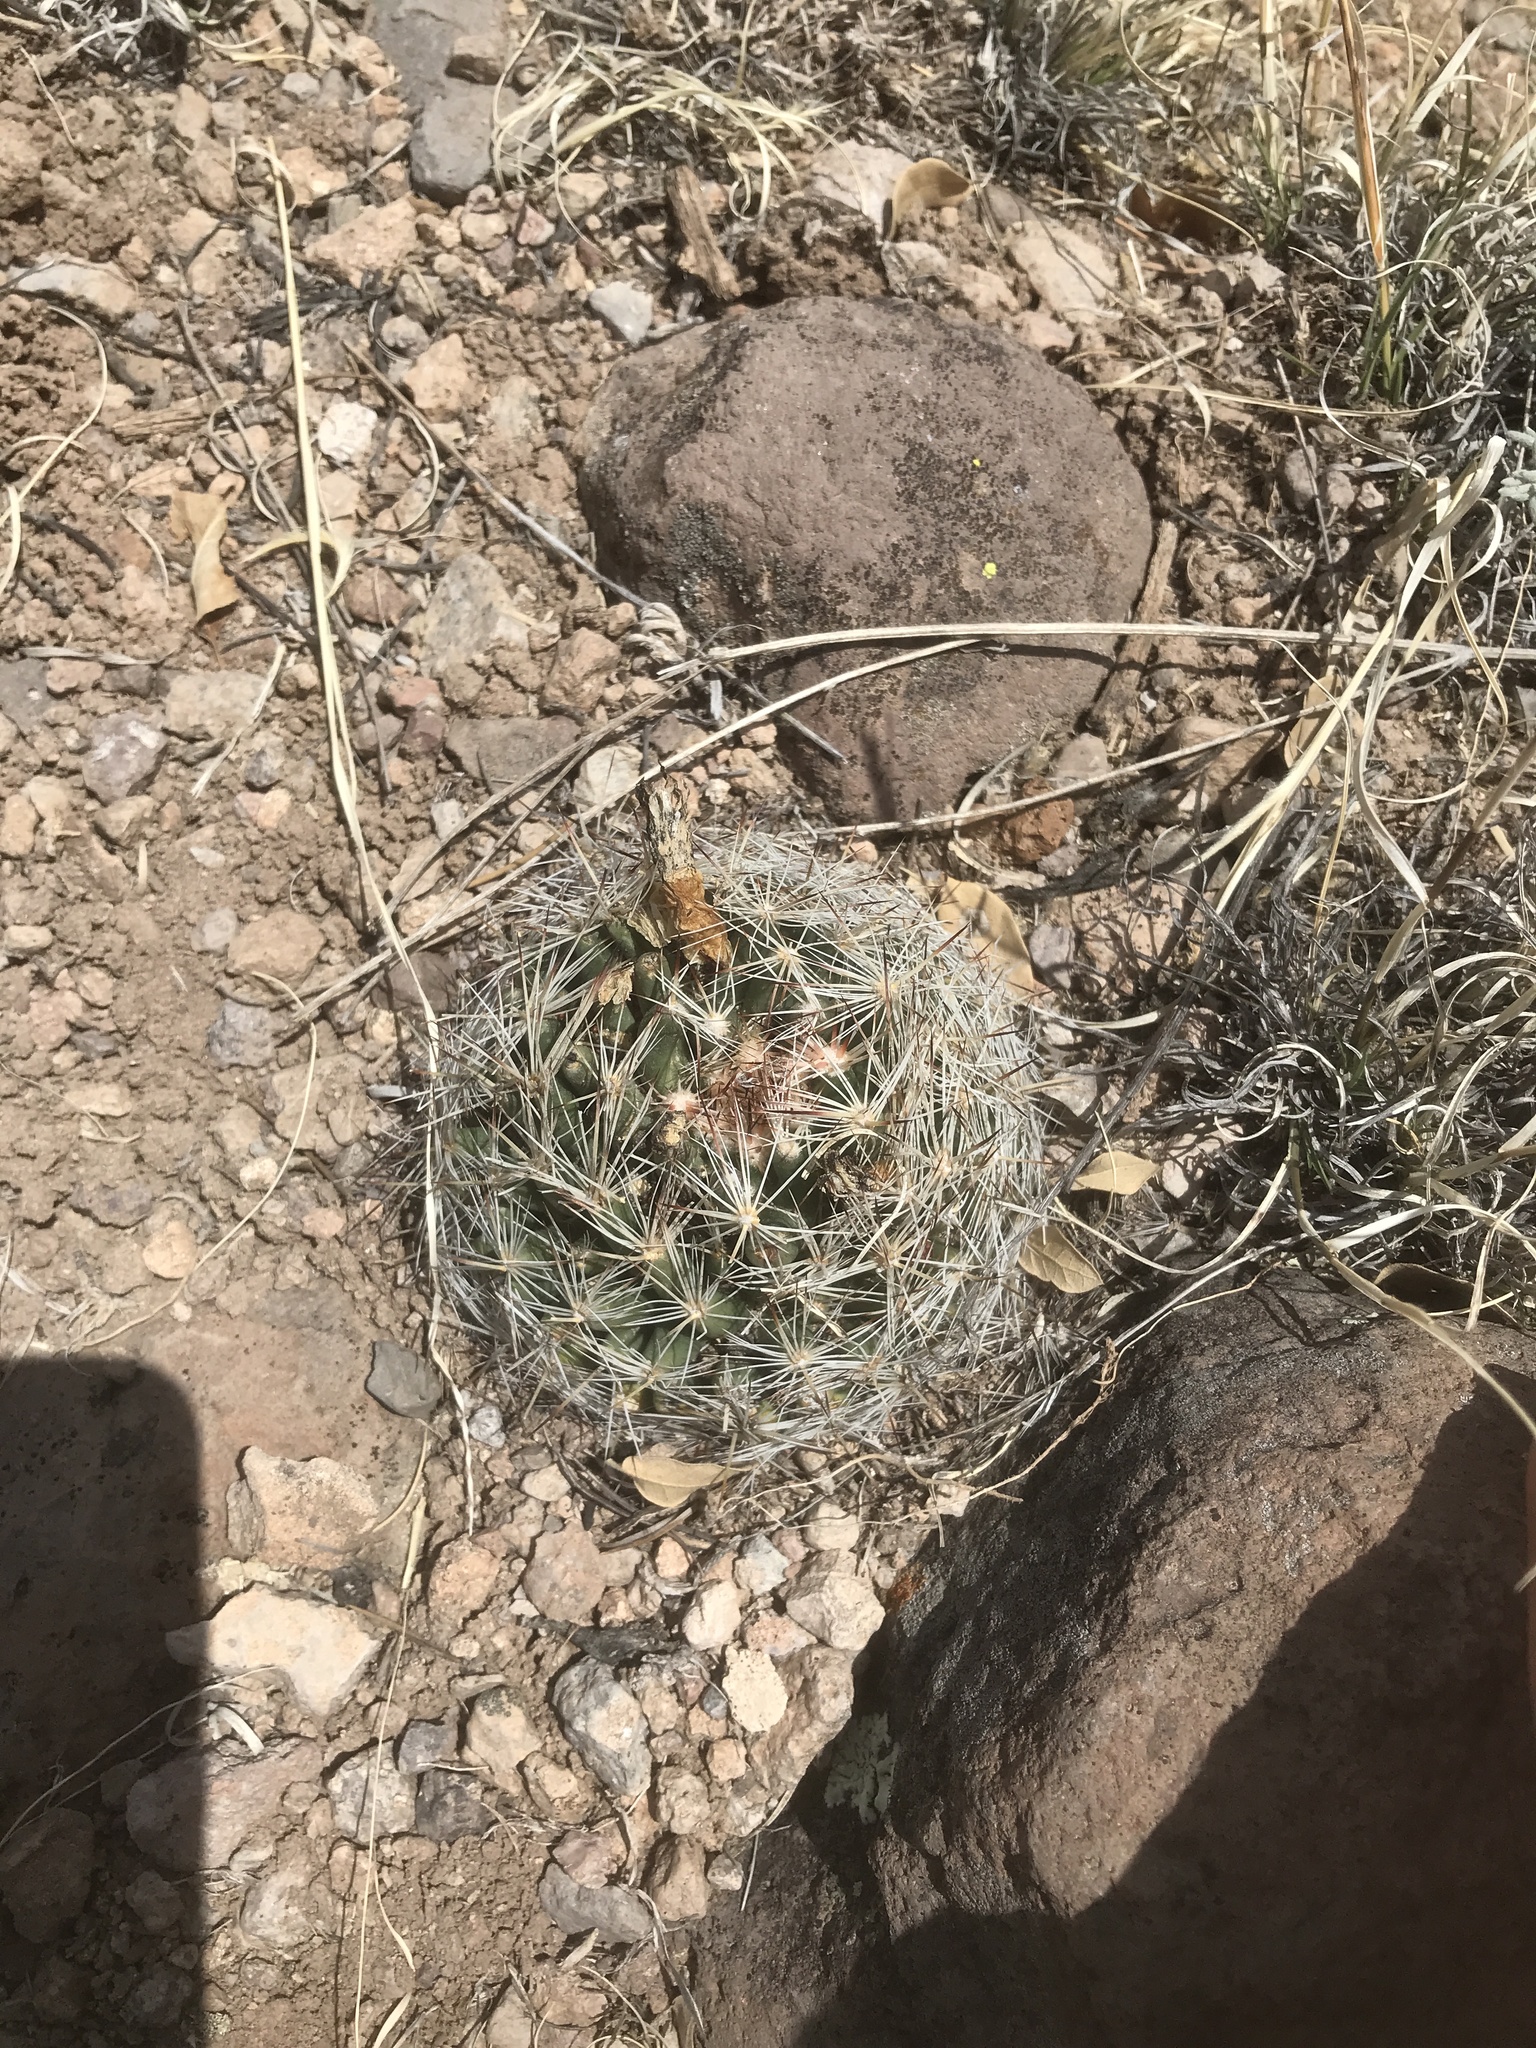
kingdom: Plantae
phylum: Tracheophyta
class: Magnoliopsida
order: Caryophyllales
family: Cactaceae
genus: Pelecyphora
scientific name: Pelecyphora vivipara
